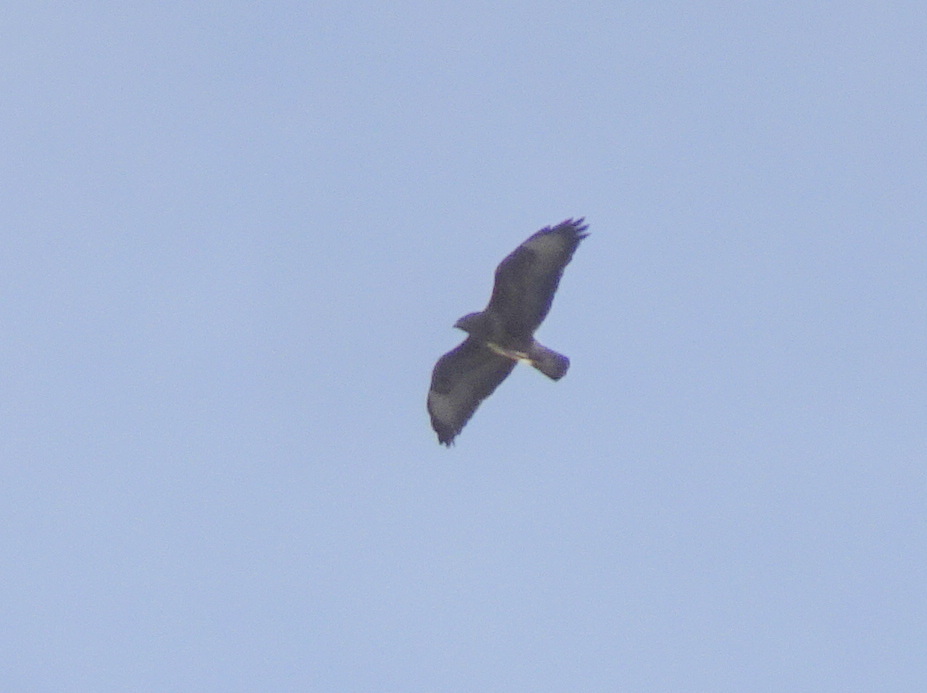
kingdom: Animalia
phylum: Chordata
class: Aves
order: Accipitriformes
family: Accipitridae
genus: Buteo
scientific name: Buteo buteo
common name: Common buzzard
